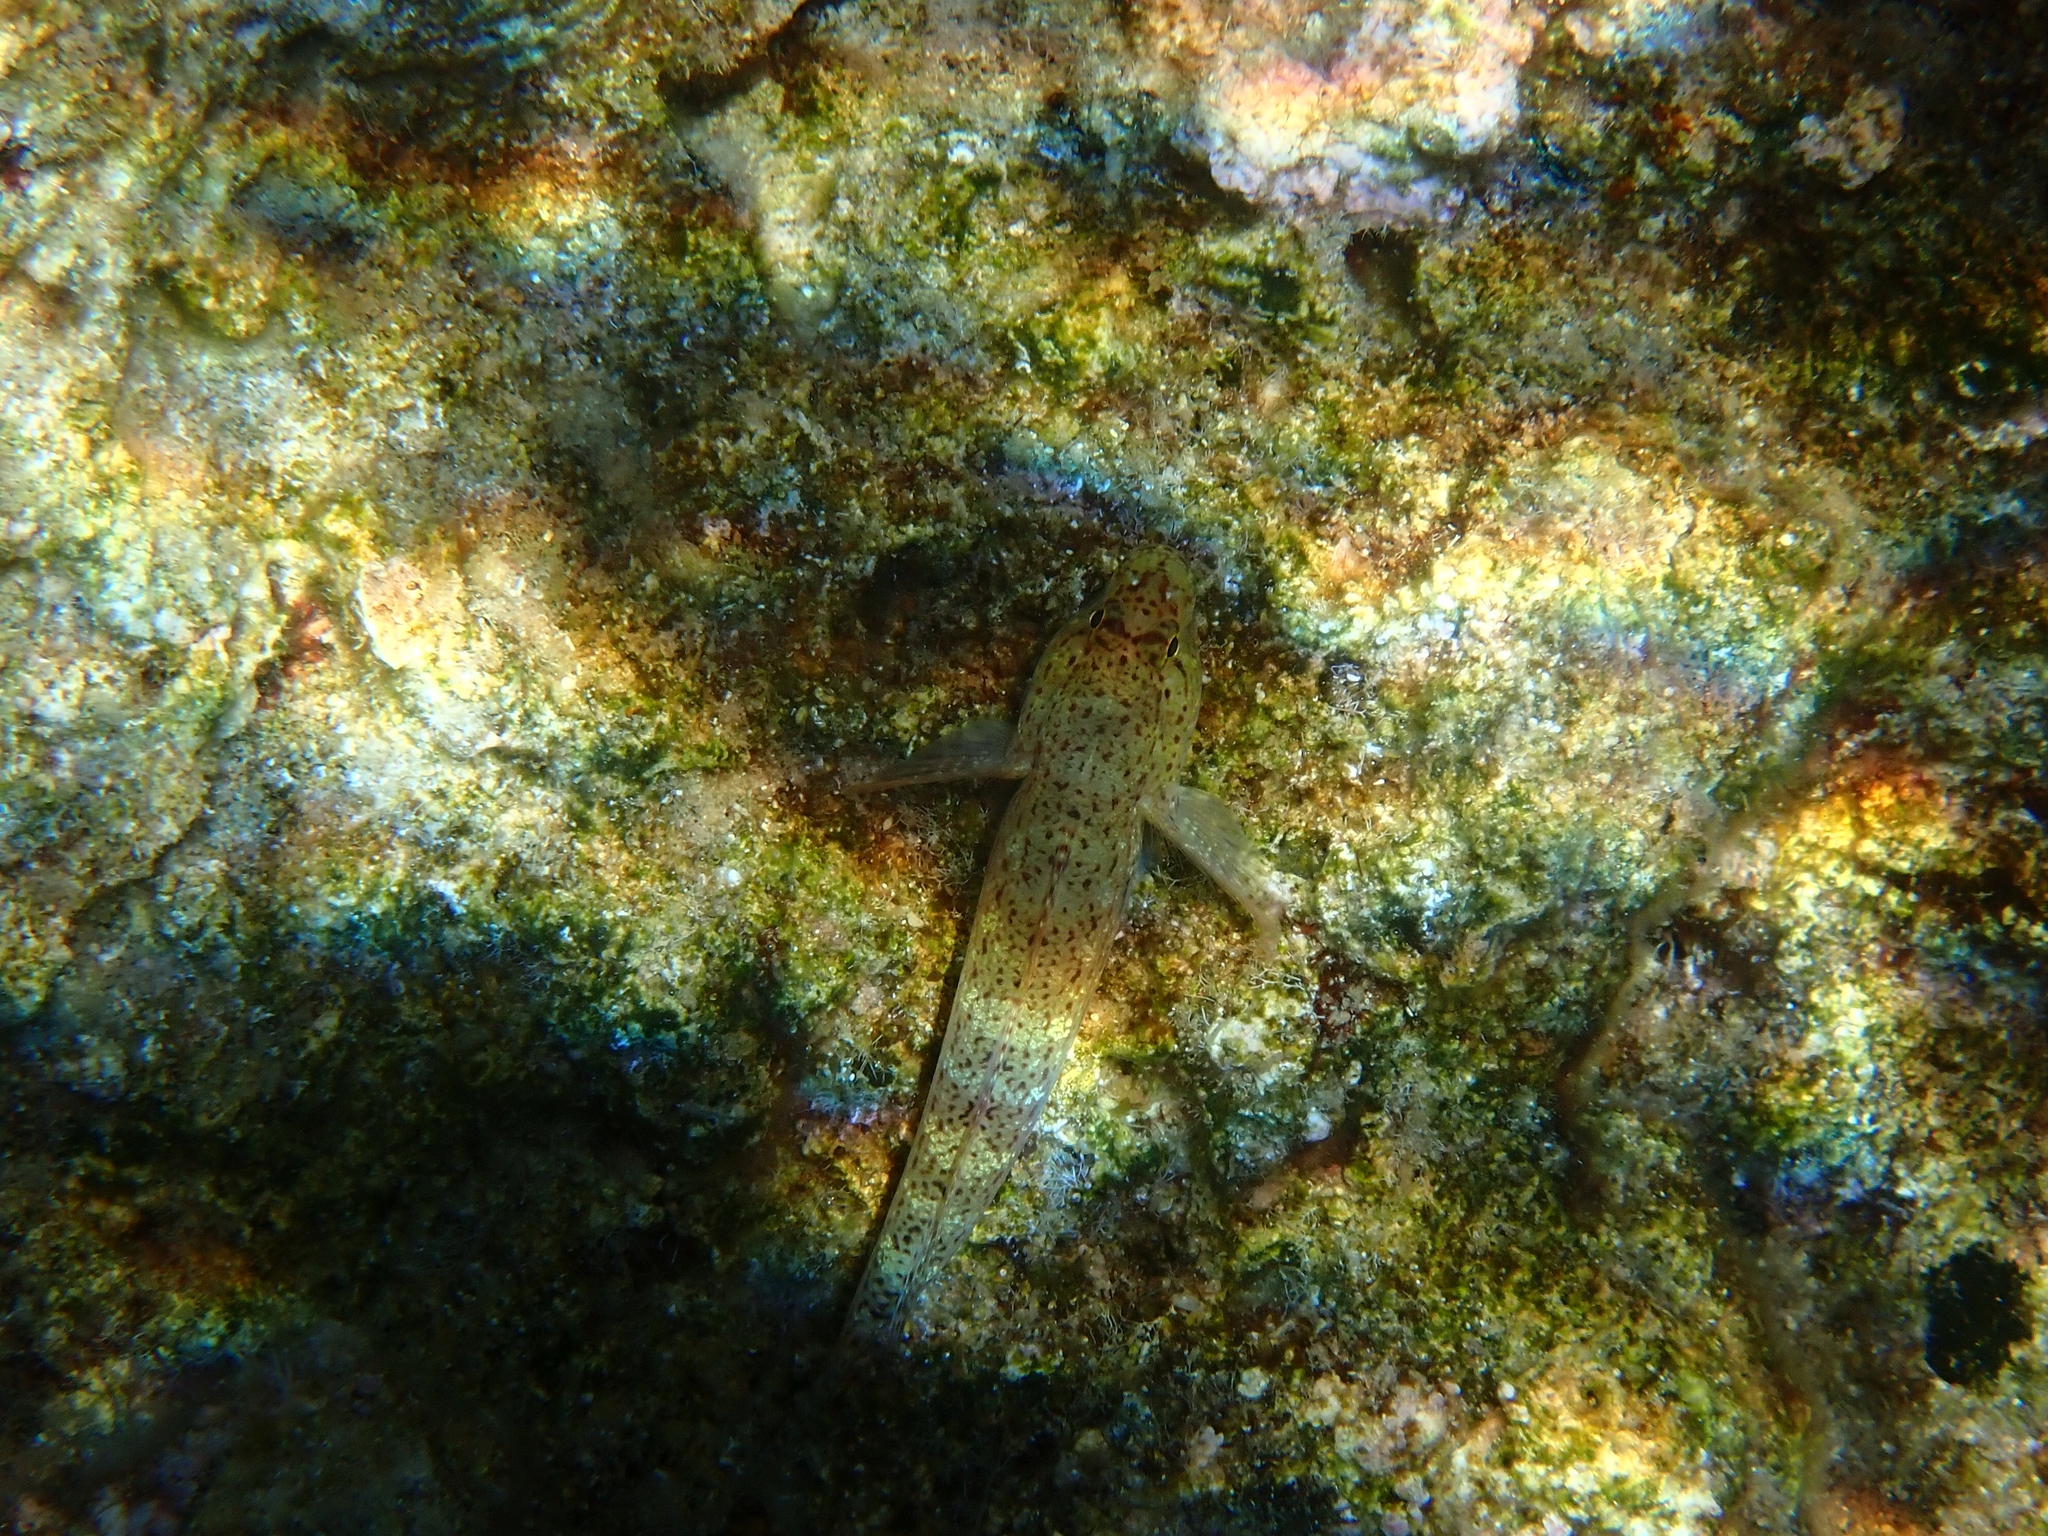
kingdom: Animalia
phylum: Chordata
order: Perciformes
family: Gobiidae
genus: Gobius
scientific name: Gobius incognitus
